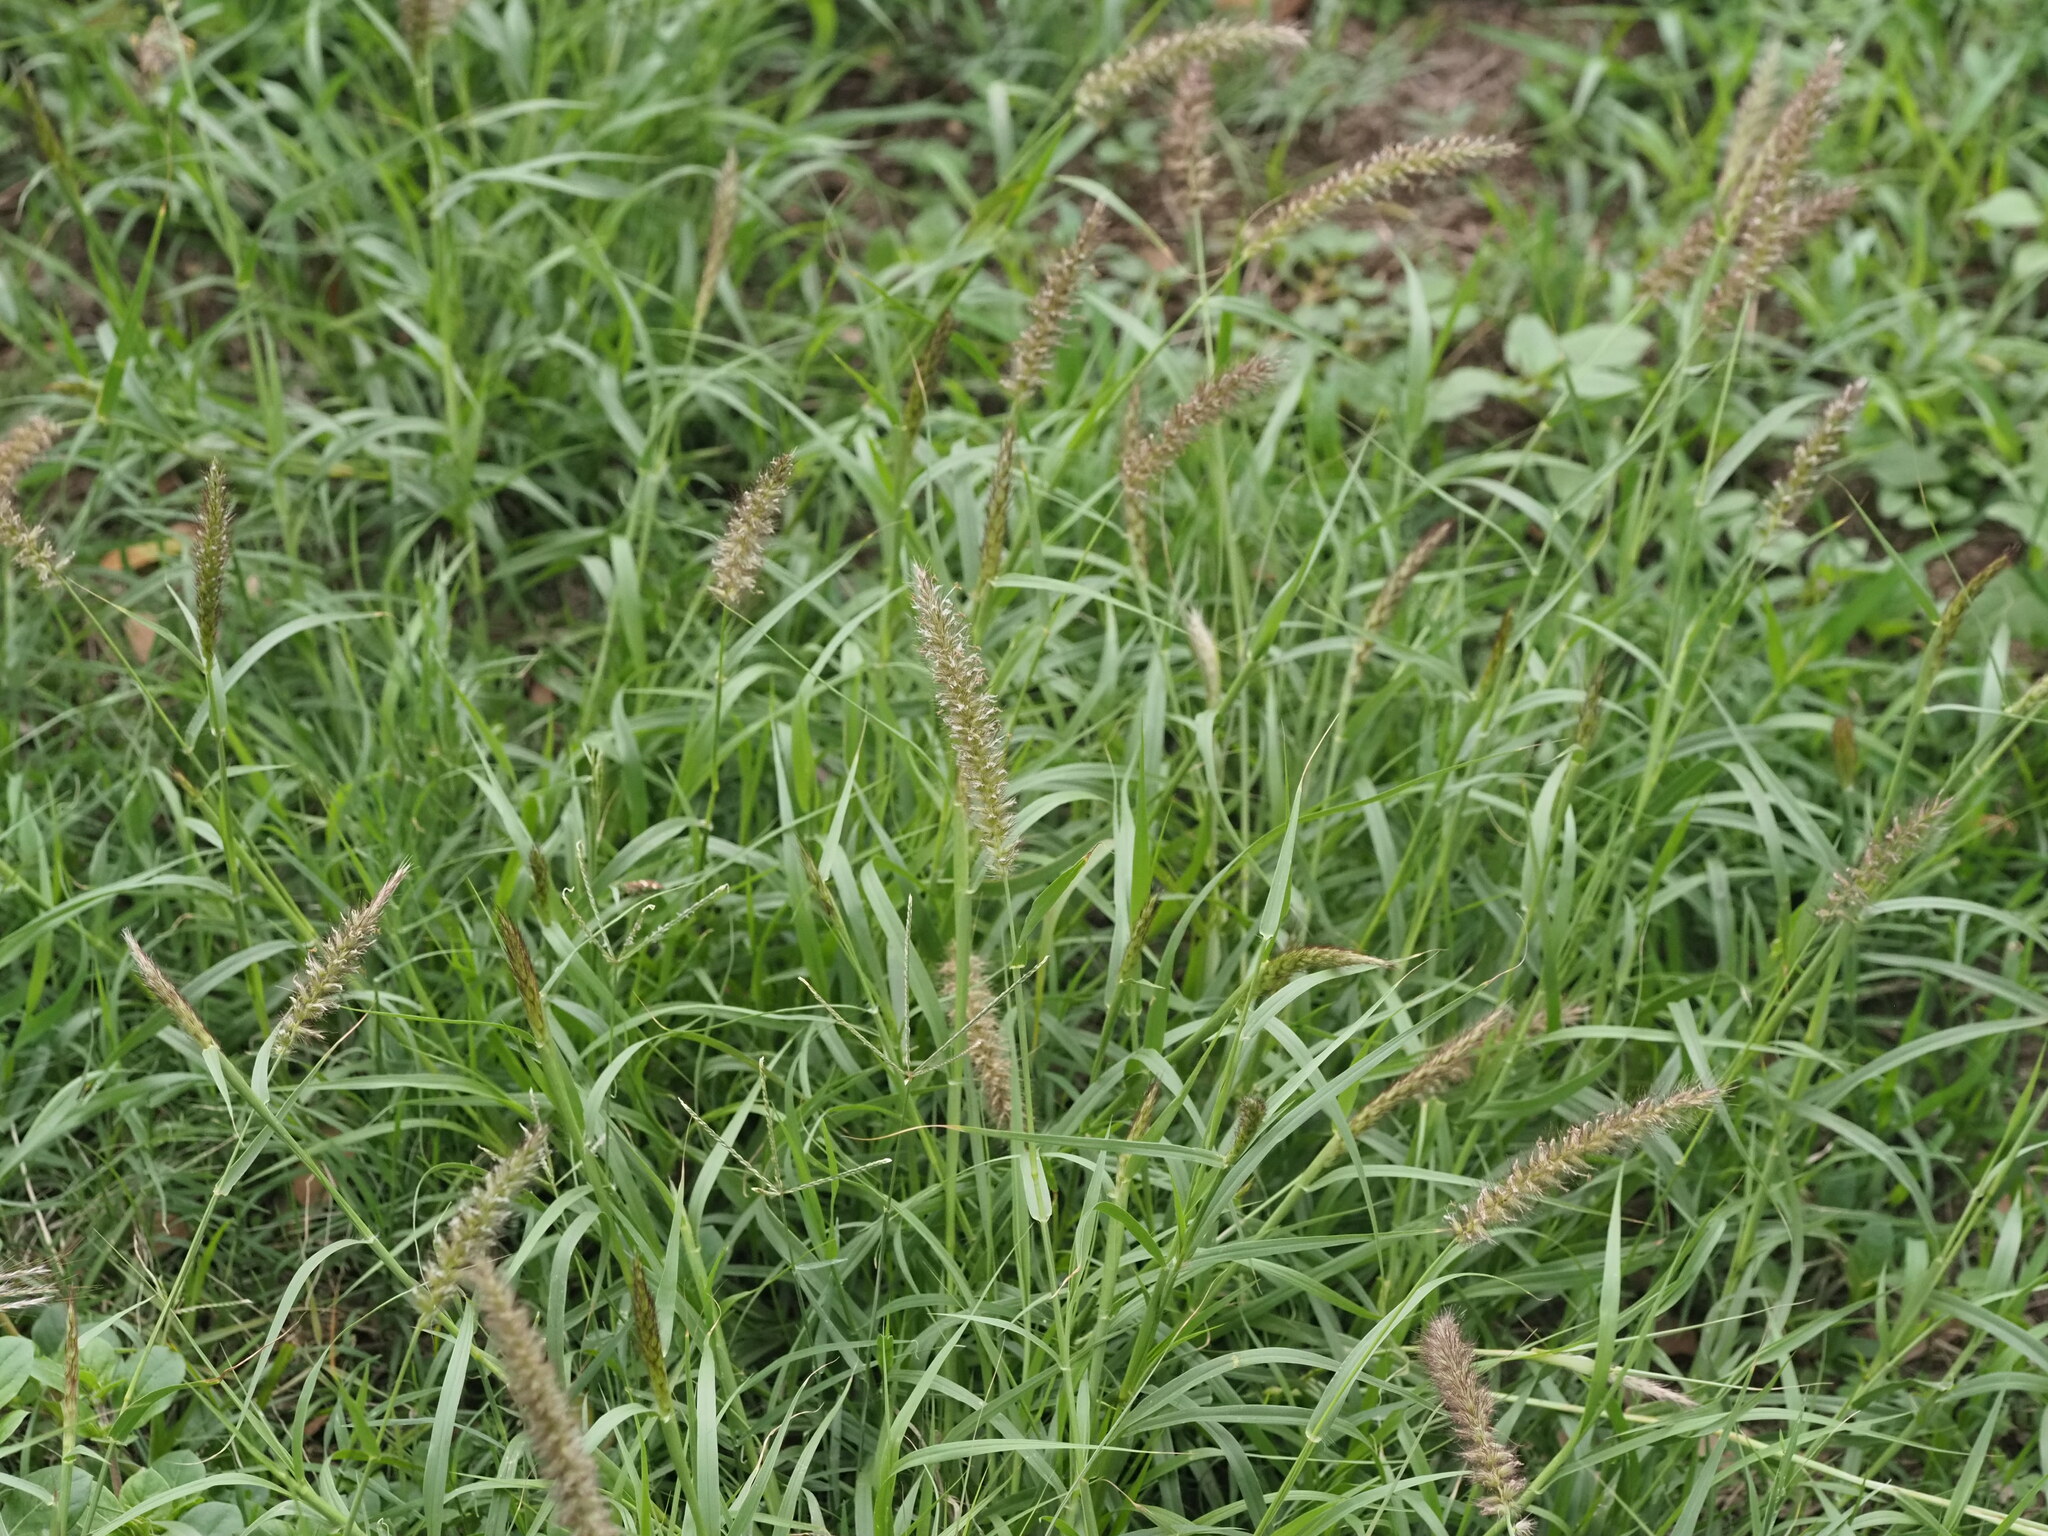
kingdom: Plantae
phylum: Tracheophyta
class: Liliopsida
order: Poales
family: Poaceae
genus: Cenchrus
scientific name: Cenchrus ciliaris
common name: Buffelgrass
